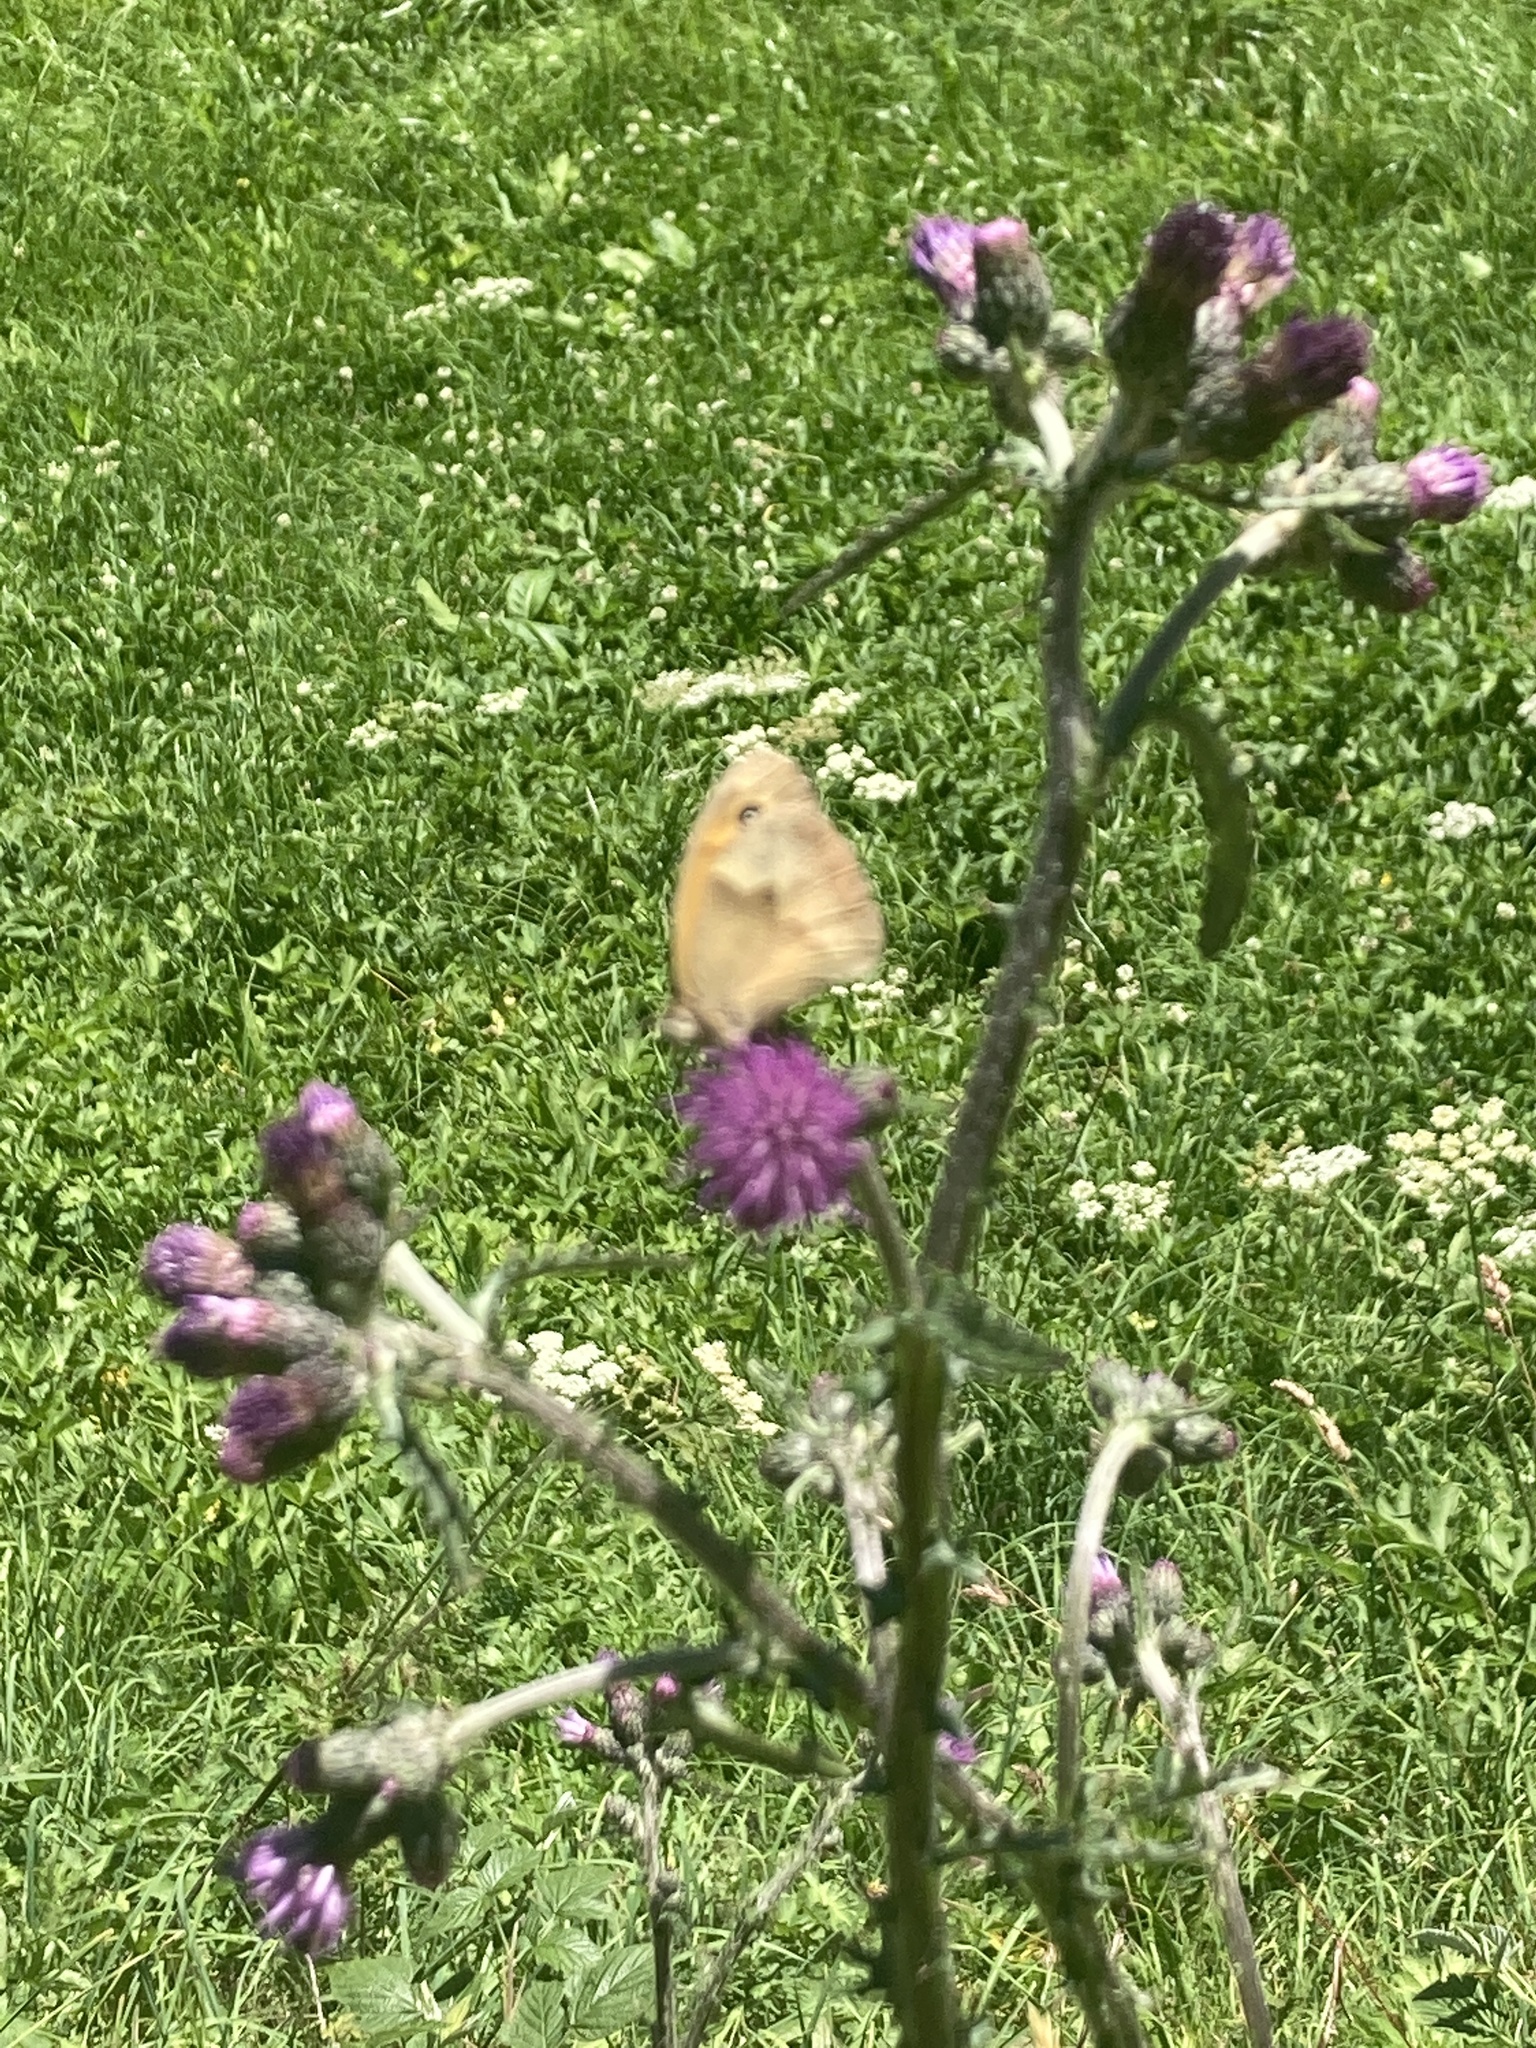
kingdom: Animalia
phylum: Arthropoda
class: Insecta
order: Lepidoptera
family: Nymphalidae
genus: Maniola
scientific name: Maniola jurtina
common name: Meadow brown
